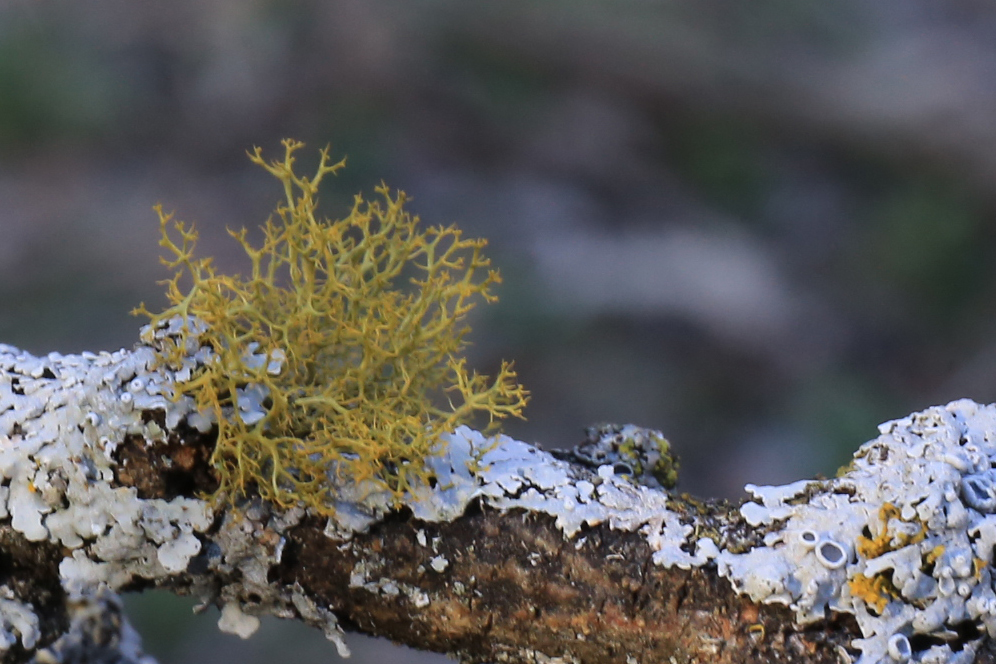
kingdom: Fungi
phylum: Ascomycota
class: Lecanoromycetes
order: Teloschistales
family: Teloschistaceae
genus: Teloschistes
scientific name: Teloschistes exilis
